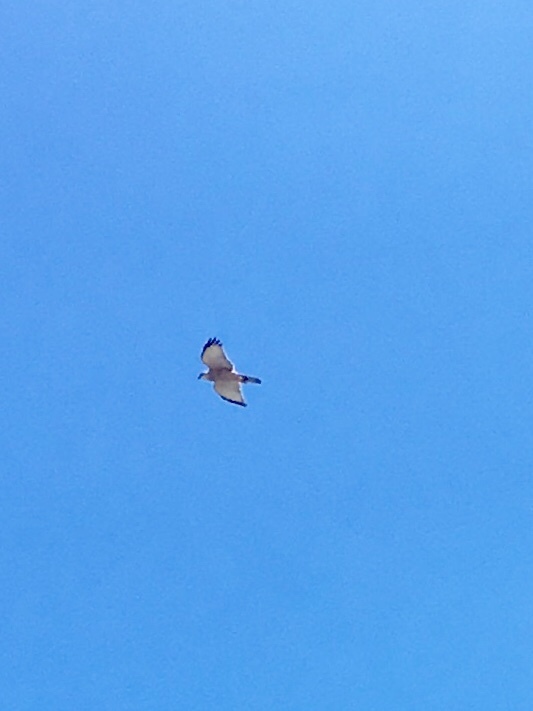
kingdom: Animalia
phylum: Chordata
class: Aves
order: Accipitriformes
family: Accipitridae
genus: Accipiter
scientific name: Accipiter rufitorques
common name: Fiji goshawk
